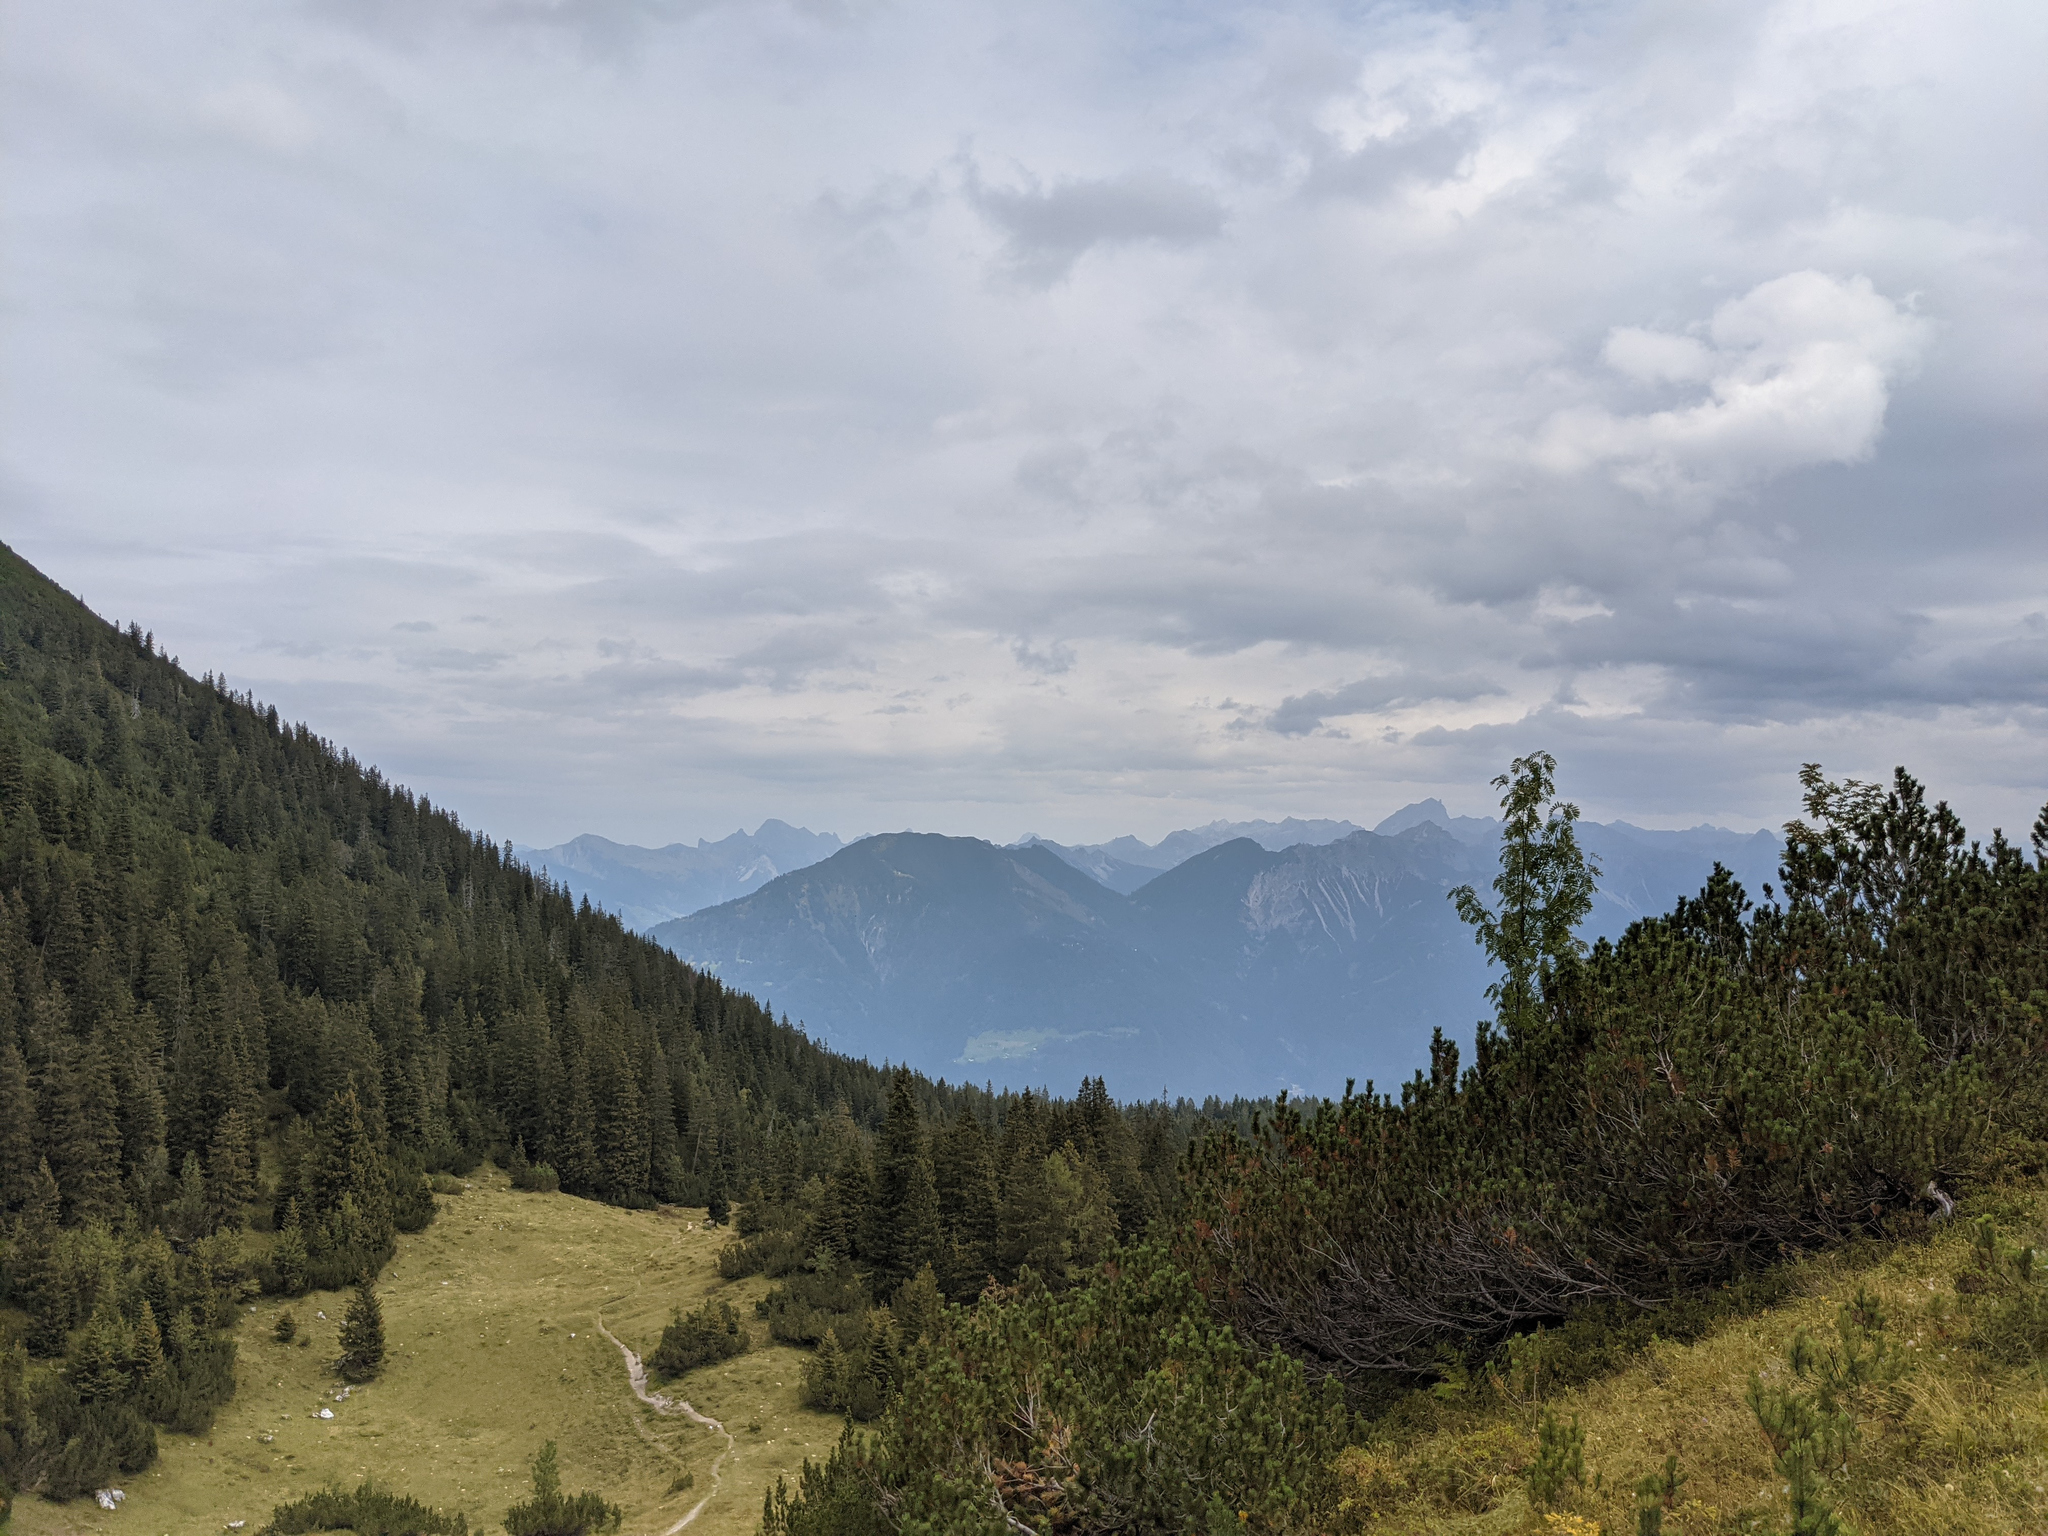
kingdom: Plantae
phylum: Tracheophyta
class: Pinopsida
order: Pinales
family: Pinaceae
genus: Picea
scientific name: Picea abies
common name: Norway spruce
